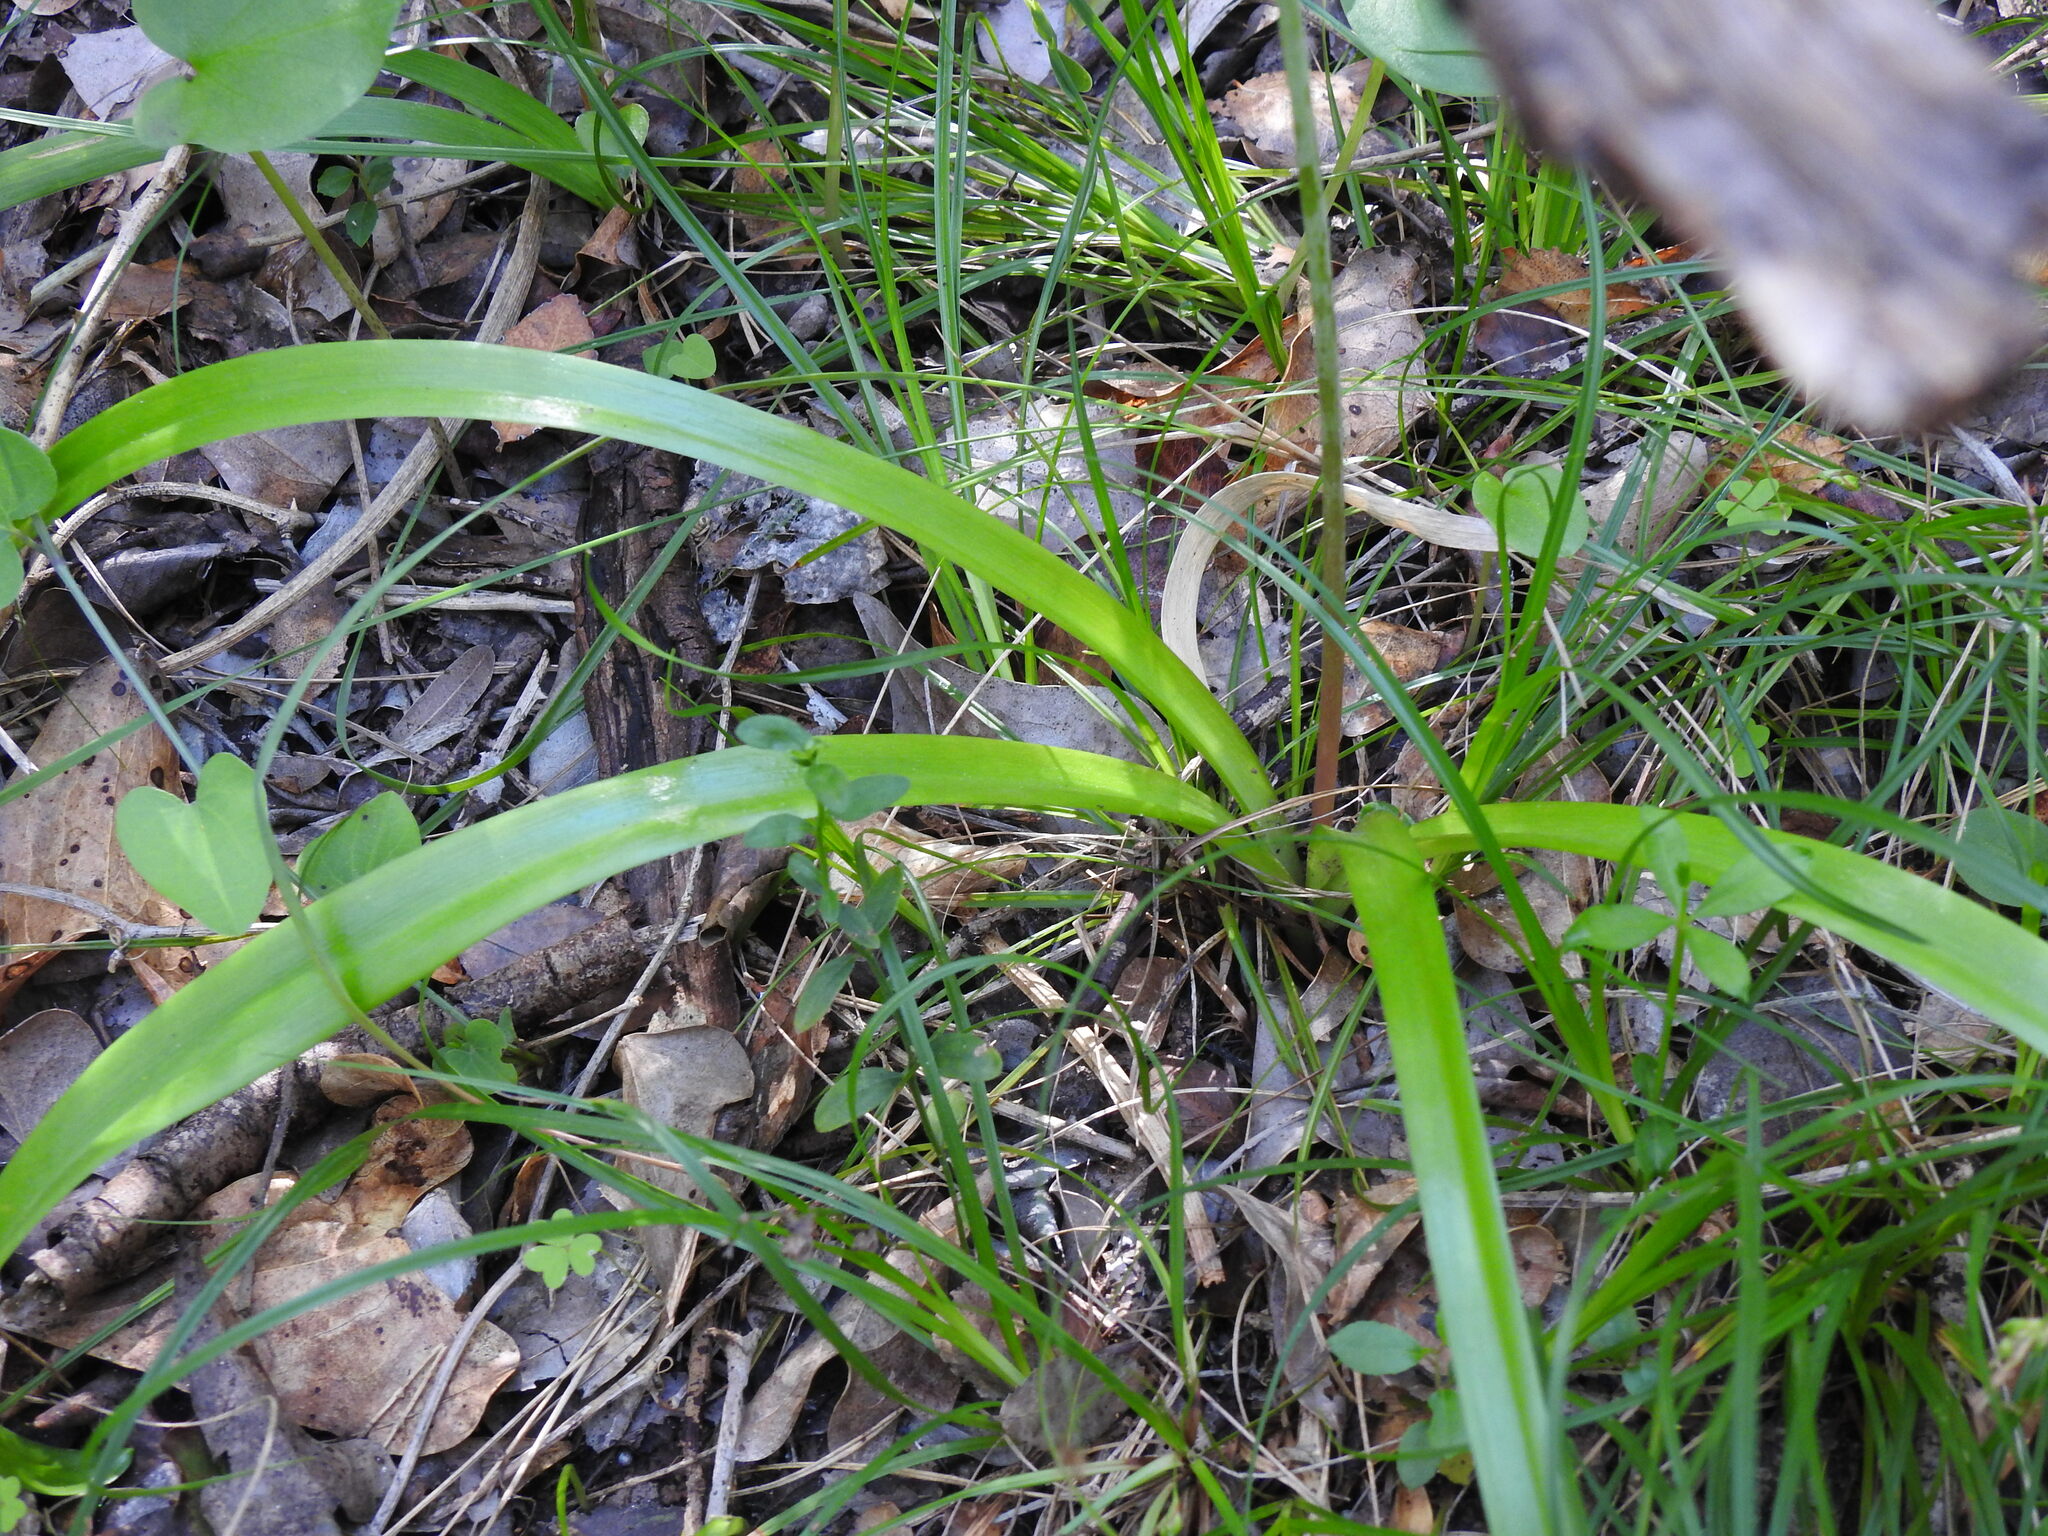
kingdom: Plantae
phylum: Tracheophyta
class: Liliopsida
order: Asparagales
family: Asparagaceae
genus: Hyacinthoides
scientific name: Hyacinthoides hispanica
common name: Spanish bluebell
